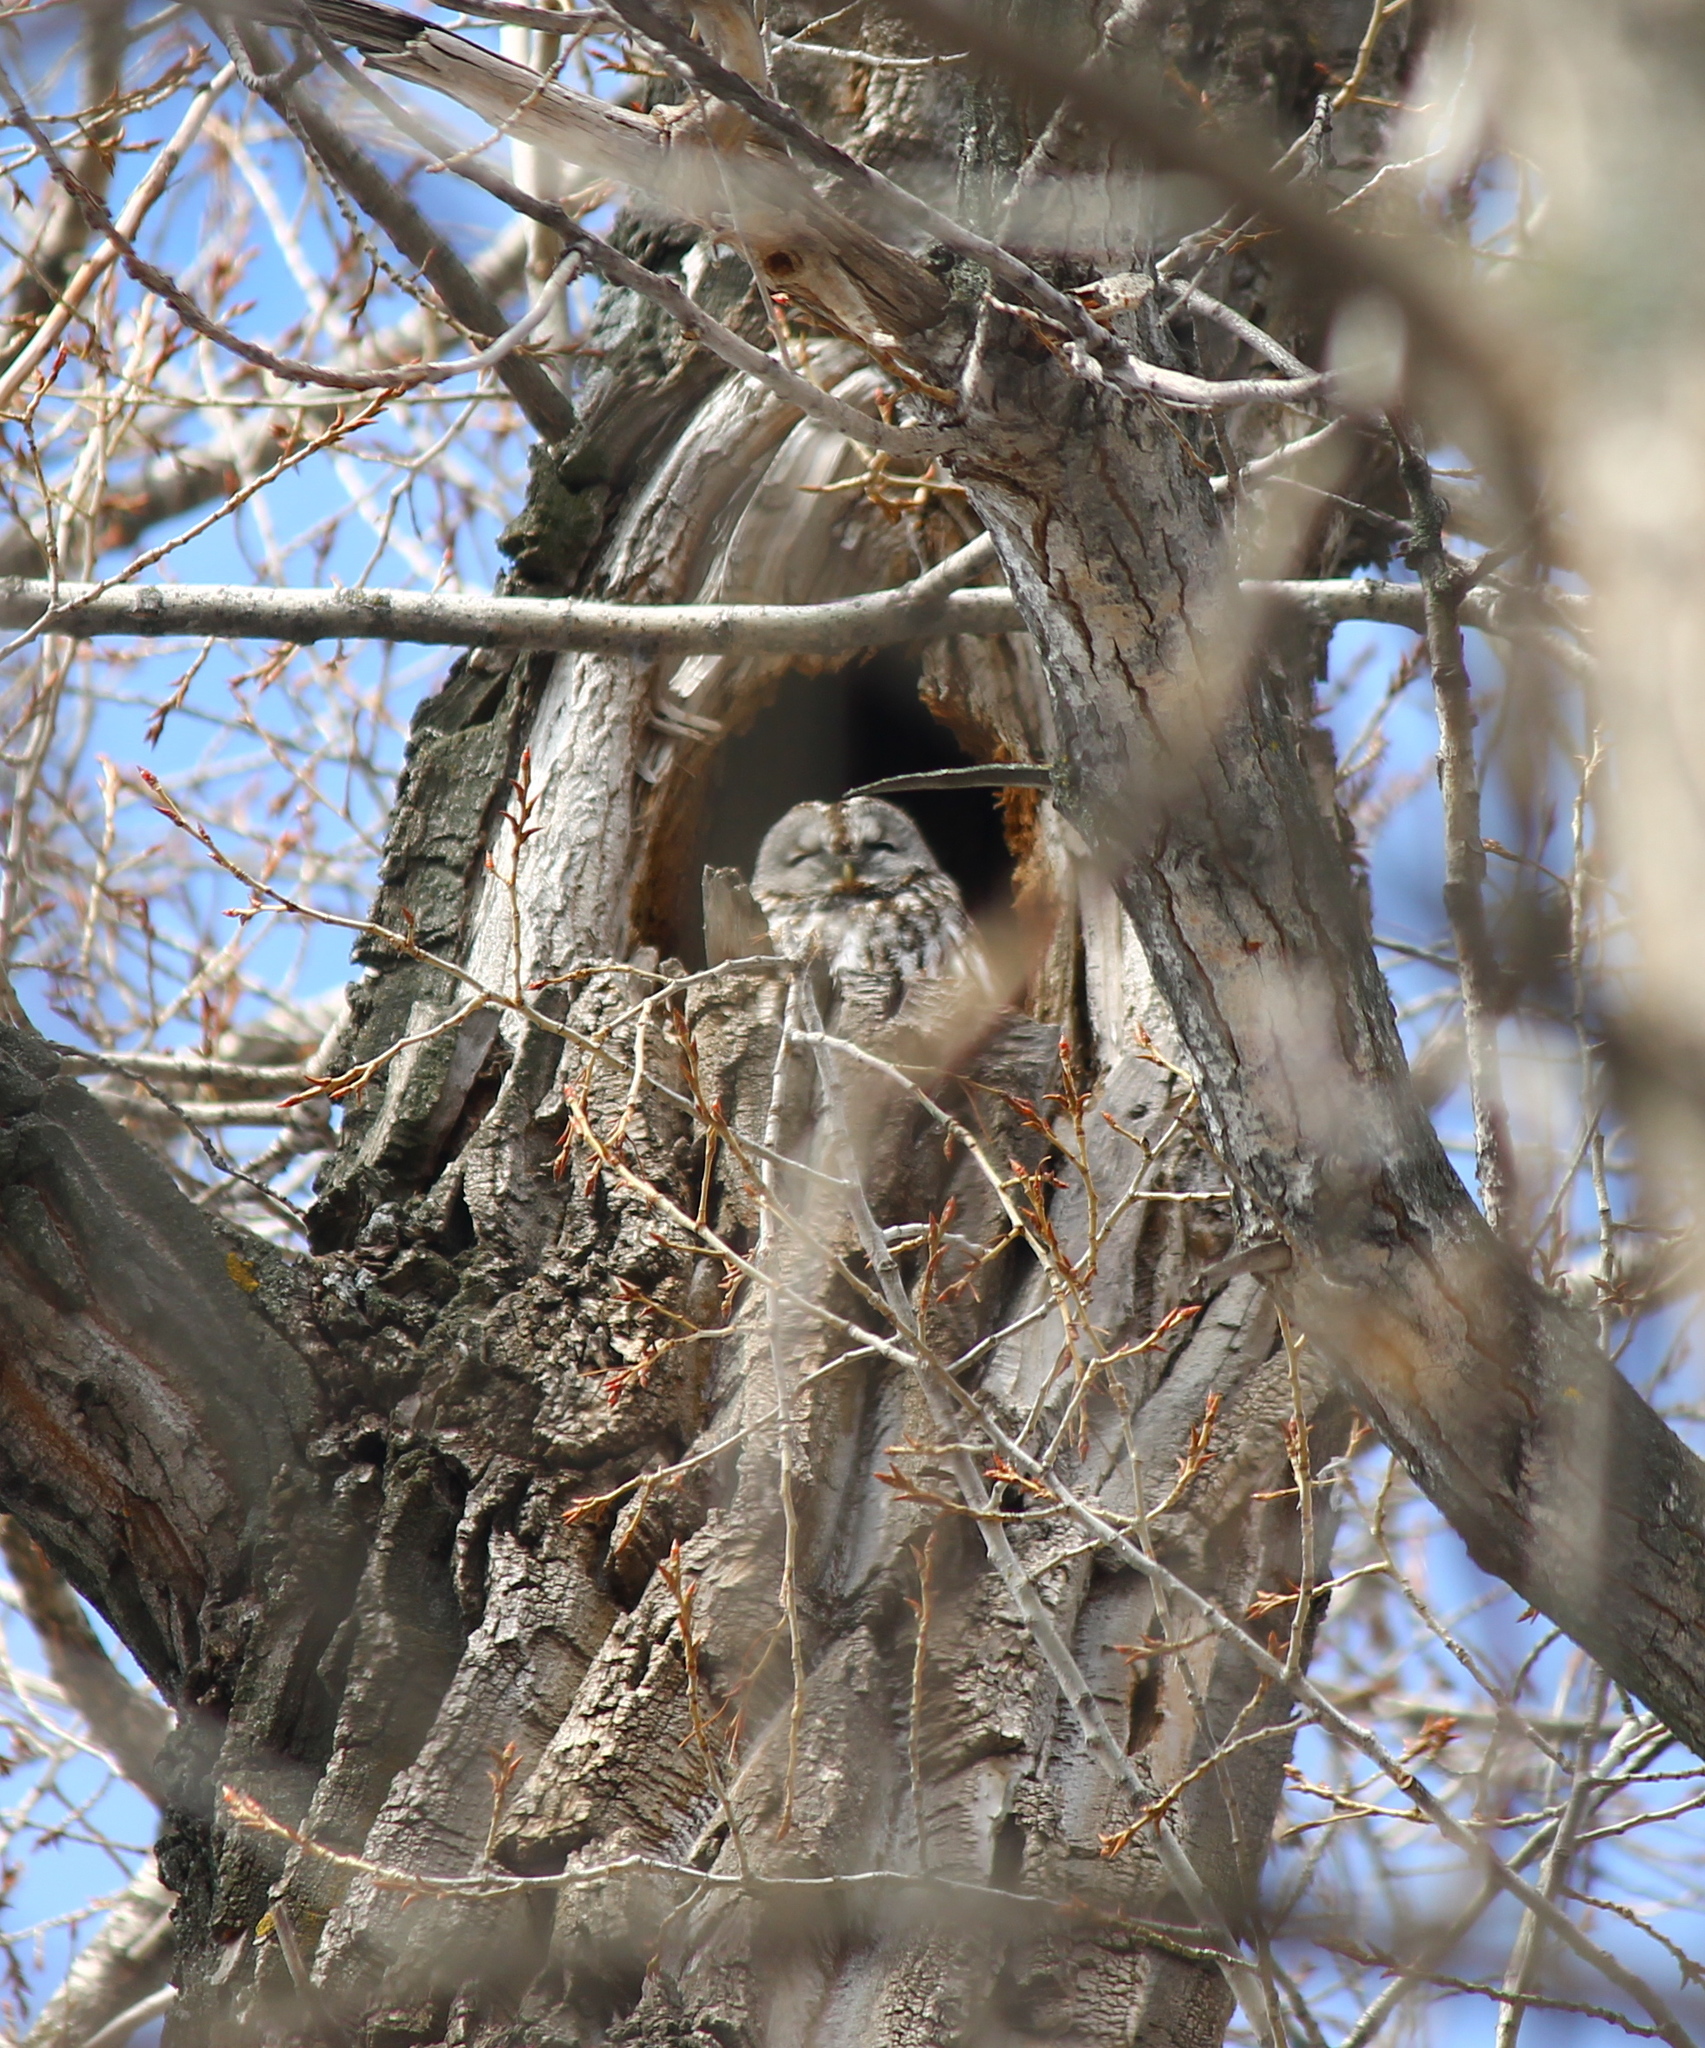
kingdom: Animalia
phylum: Chordata
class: Aves
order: Strigiformes
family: Strigidae
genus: Strix
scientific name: Strix aluco
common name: Tawny owl
